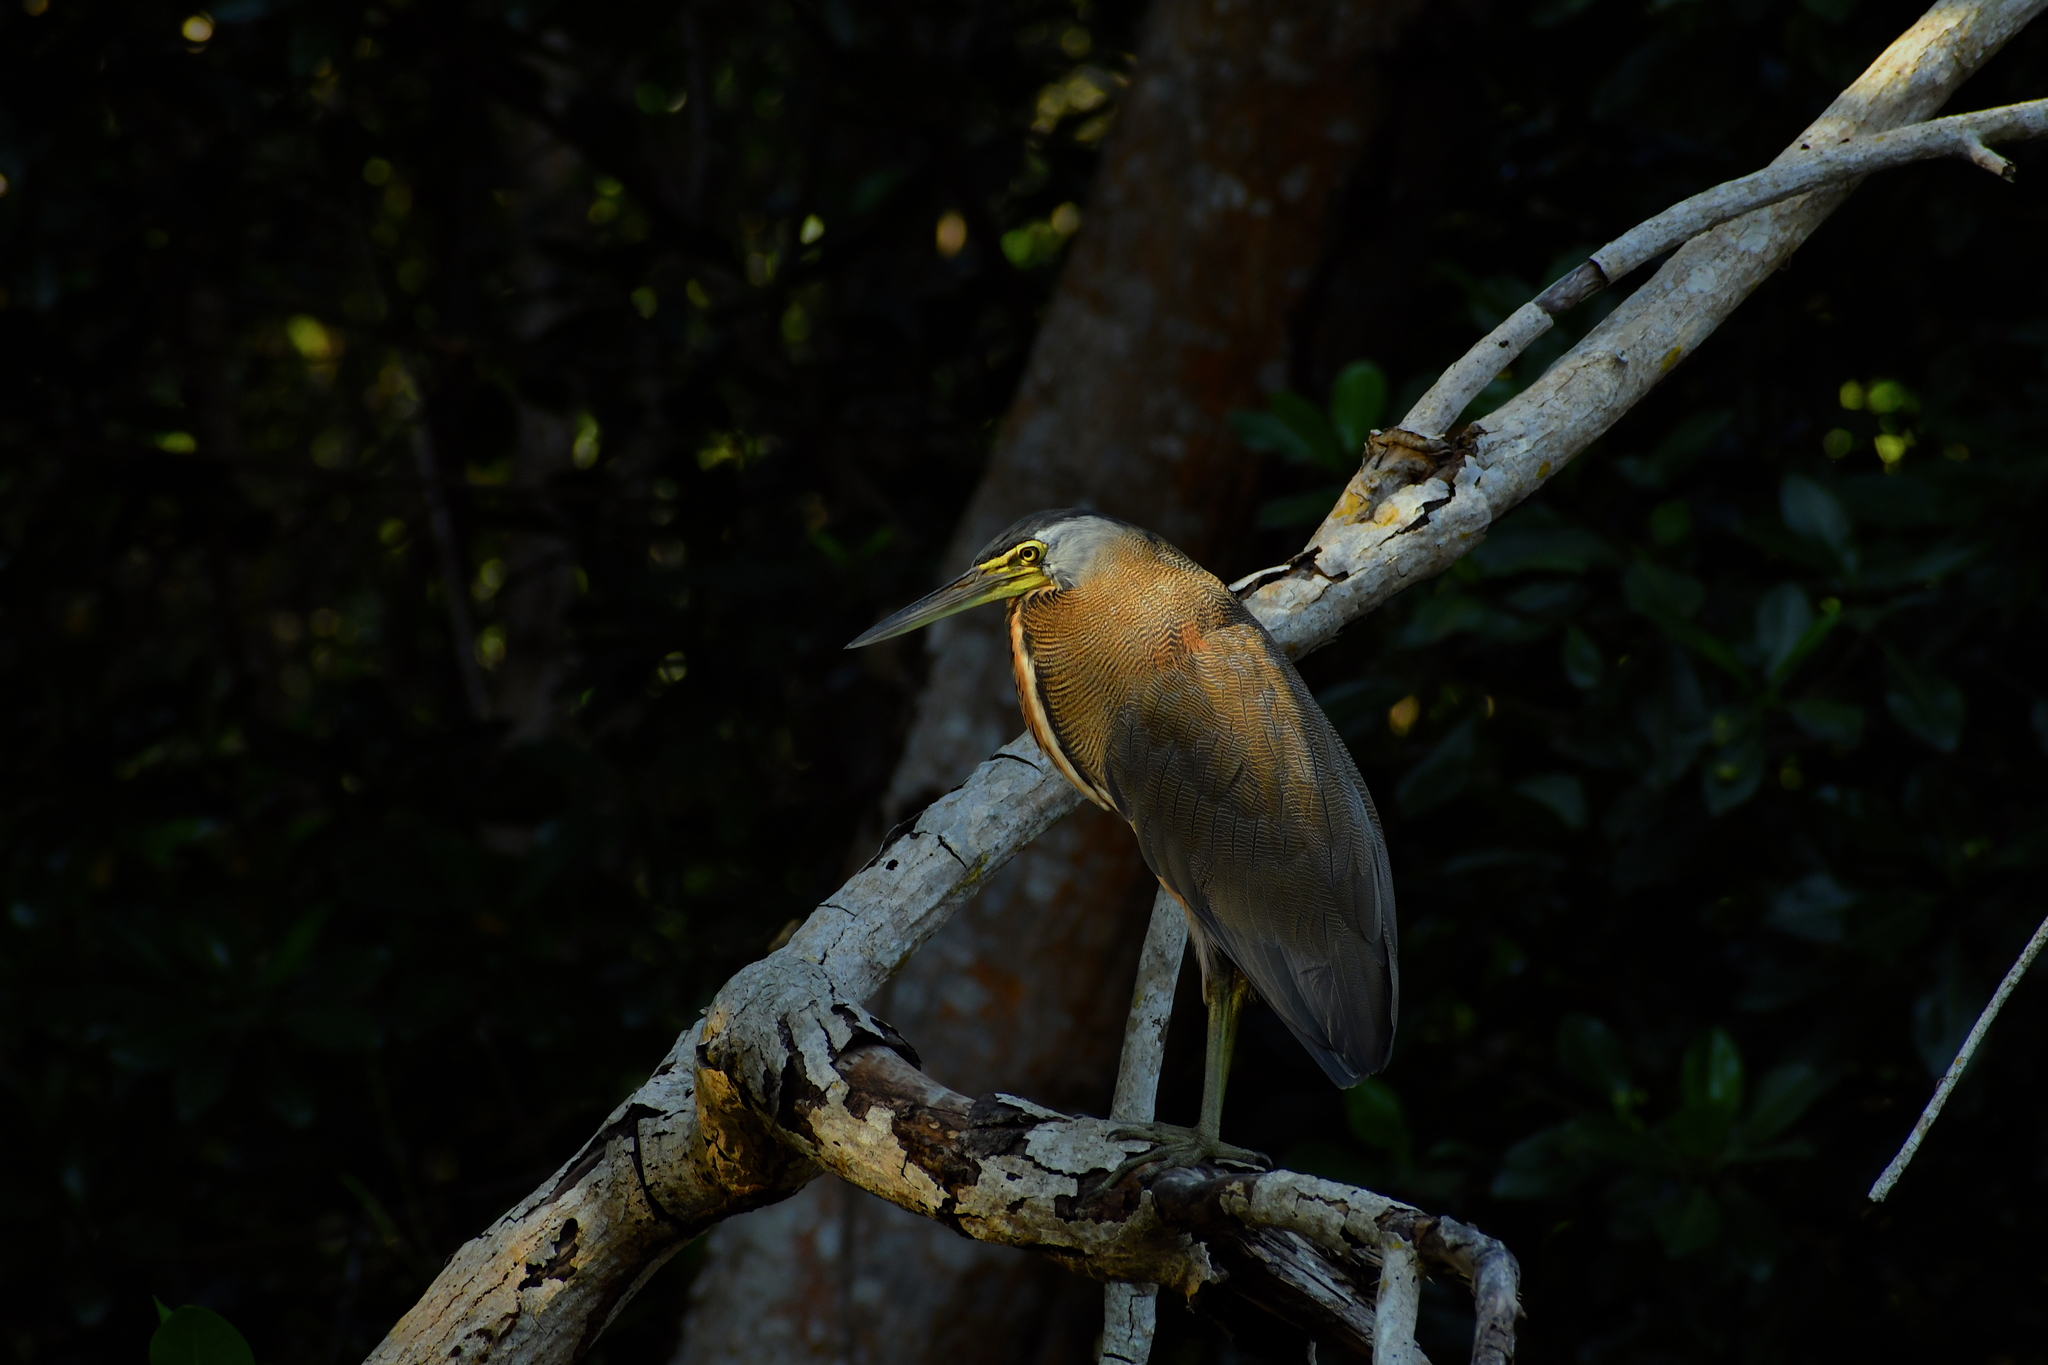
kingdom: Animalia
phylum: Chordata
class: Aves
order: Pelecaniformes
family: Ardeidae
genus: Tigrisoma
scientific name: Tigrisoma mexicanum
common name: Bare-throated tiger-heron
